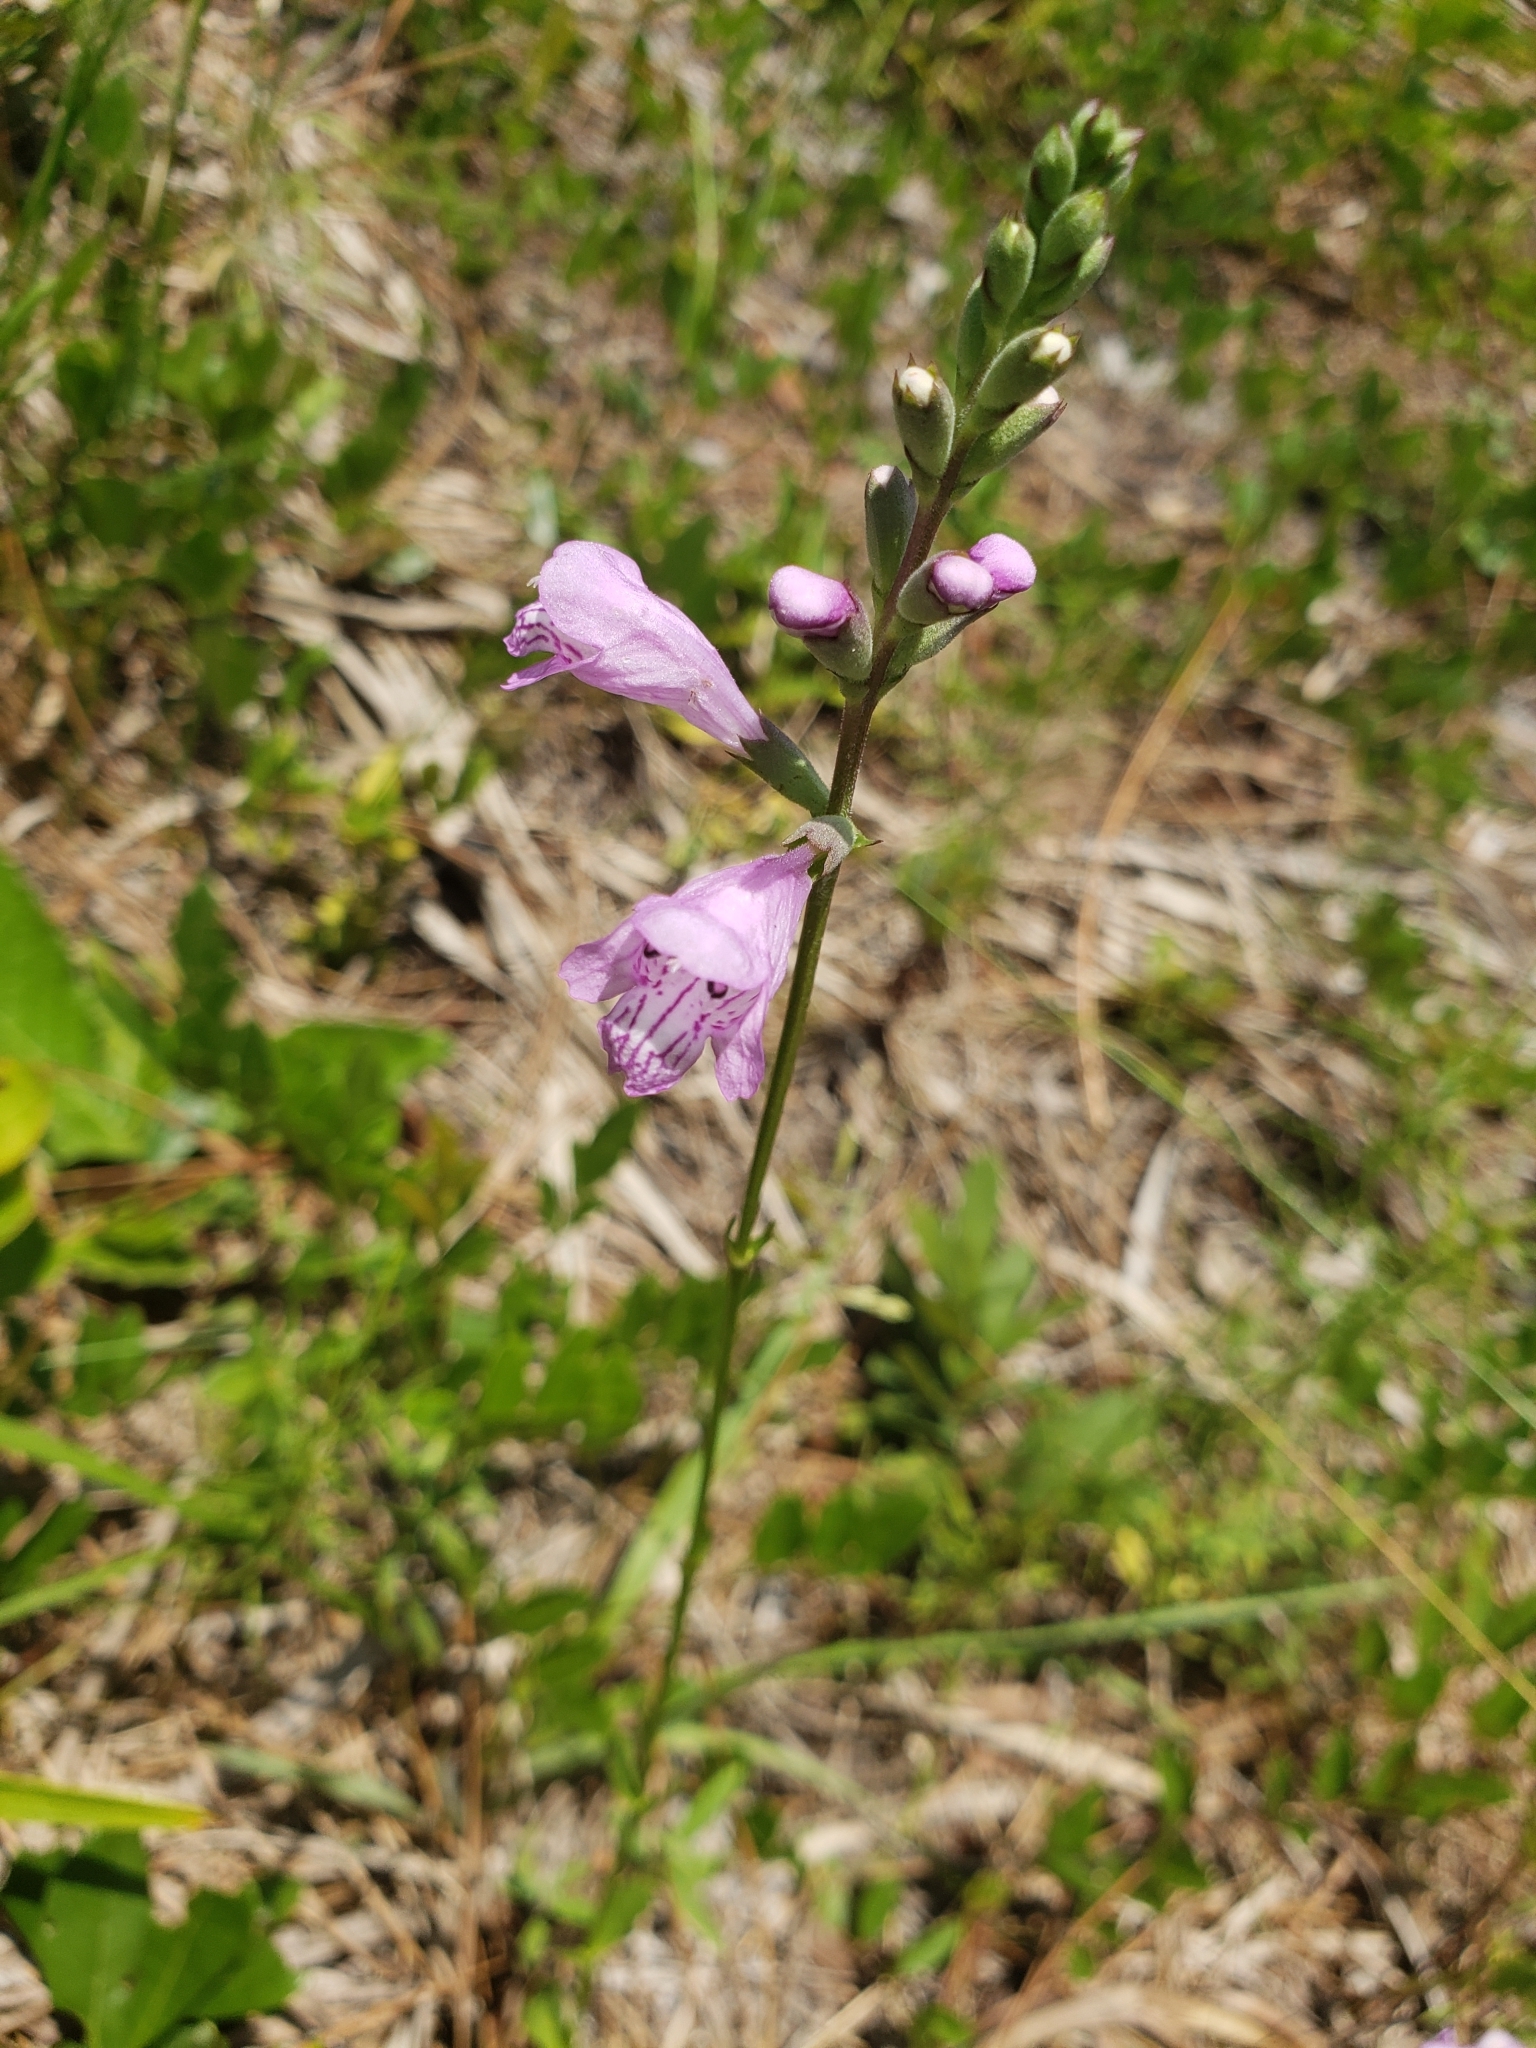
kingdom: Plantae
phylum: Tracheophyta
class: Magnoliopsida
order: Lamiales
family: Lamiaceae
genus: Physostegia
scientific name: Physostegia purpurea
